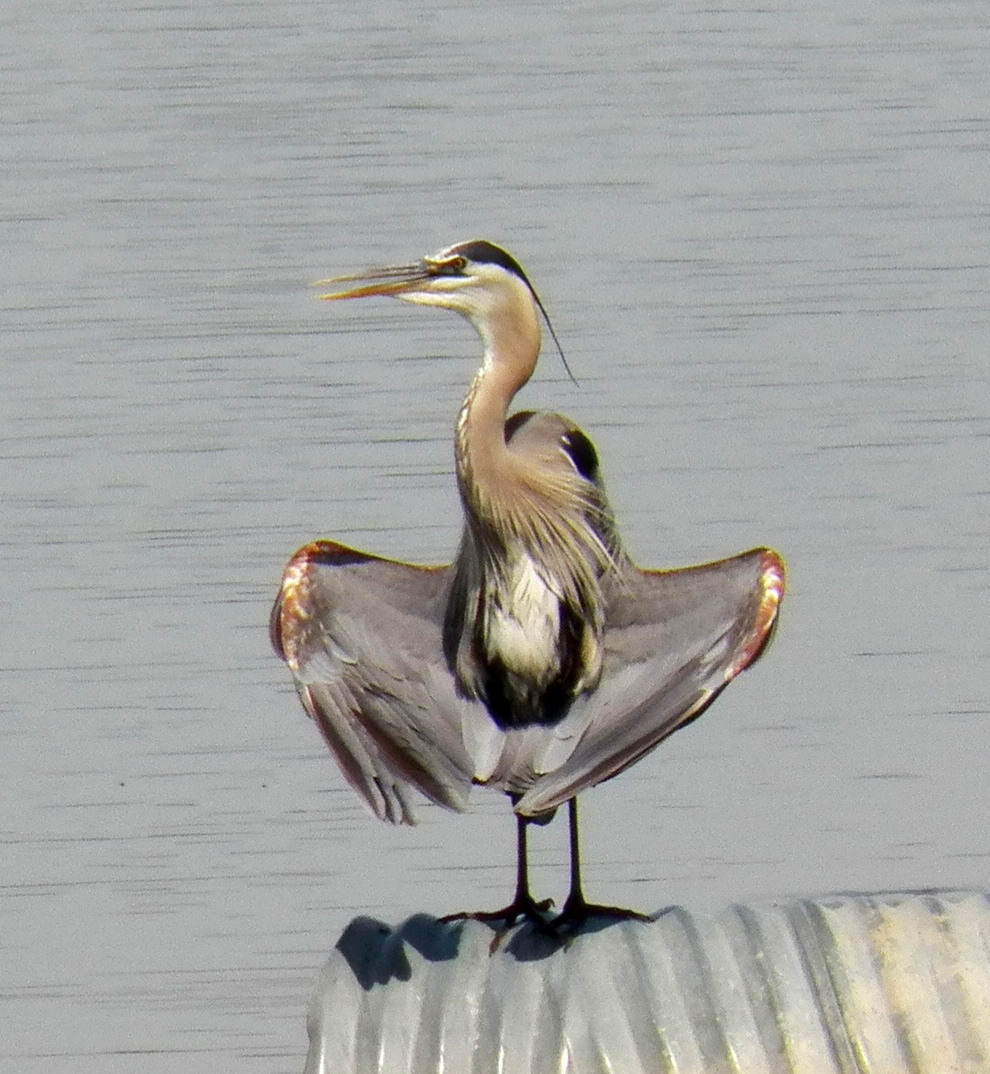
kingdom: Animalia
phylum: Chordata
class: Aves
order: Pelecaniformes
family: Ardeidae
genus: Ardea
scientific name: Ardea herodias
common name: Great blue heron
